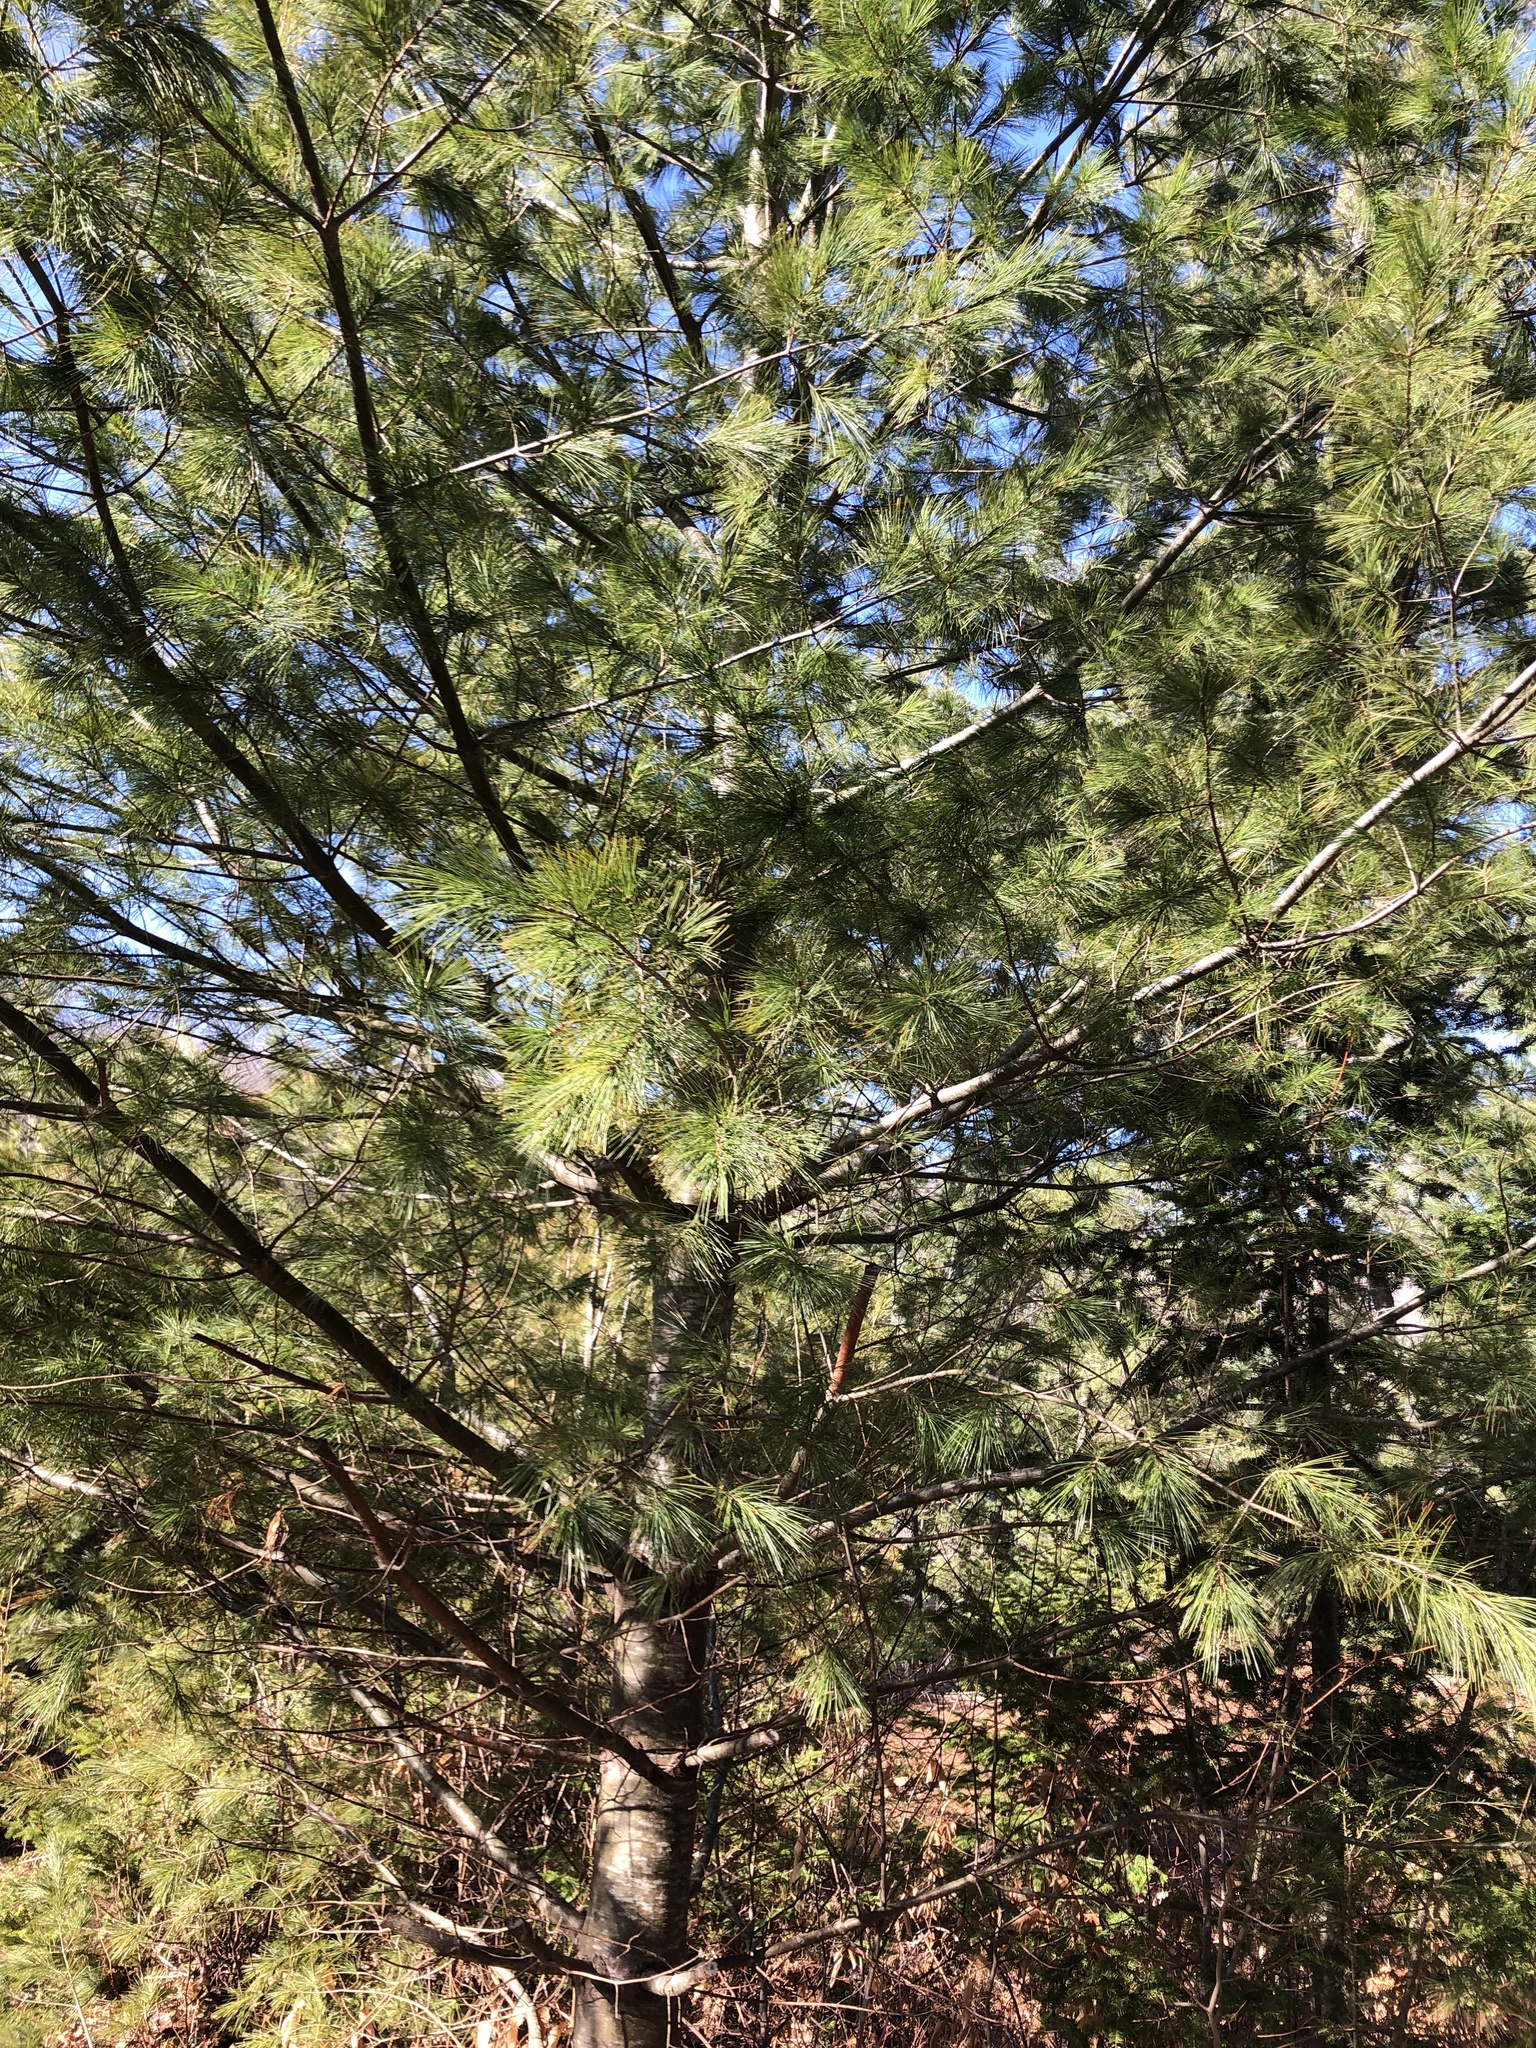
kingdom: Plantae
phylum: Tracheophyta
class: Pinopsida
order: Pinales
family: Pinaceae
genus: Pinus
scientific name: Pinus strobus
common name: Weymouth pine
